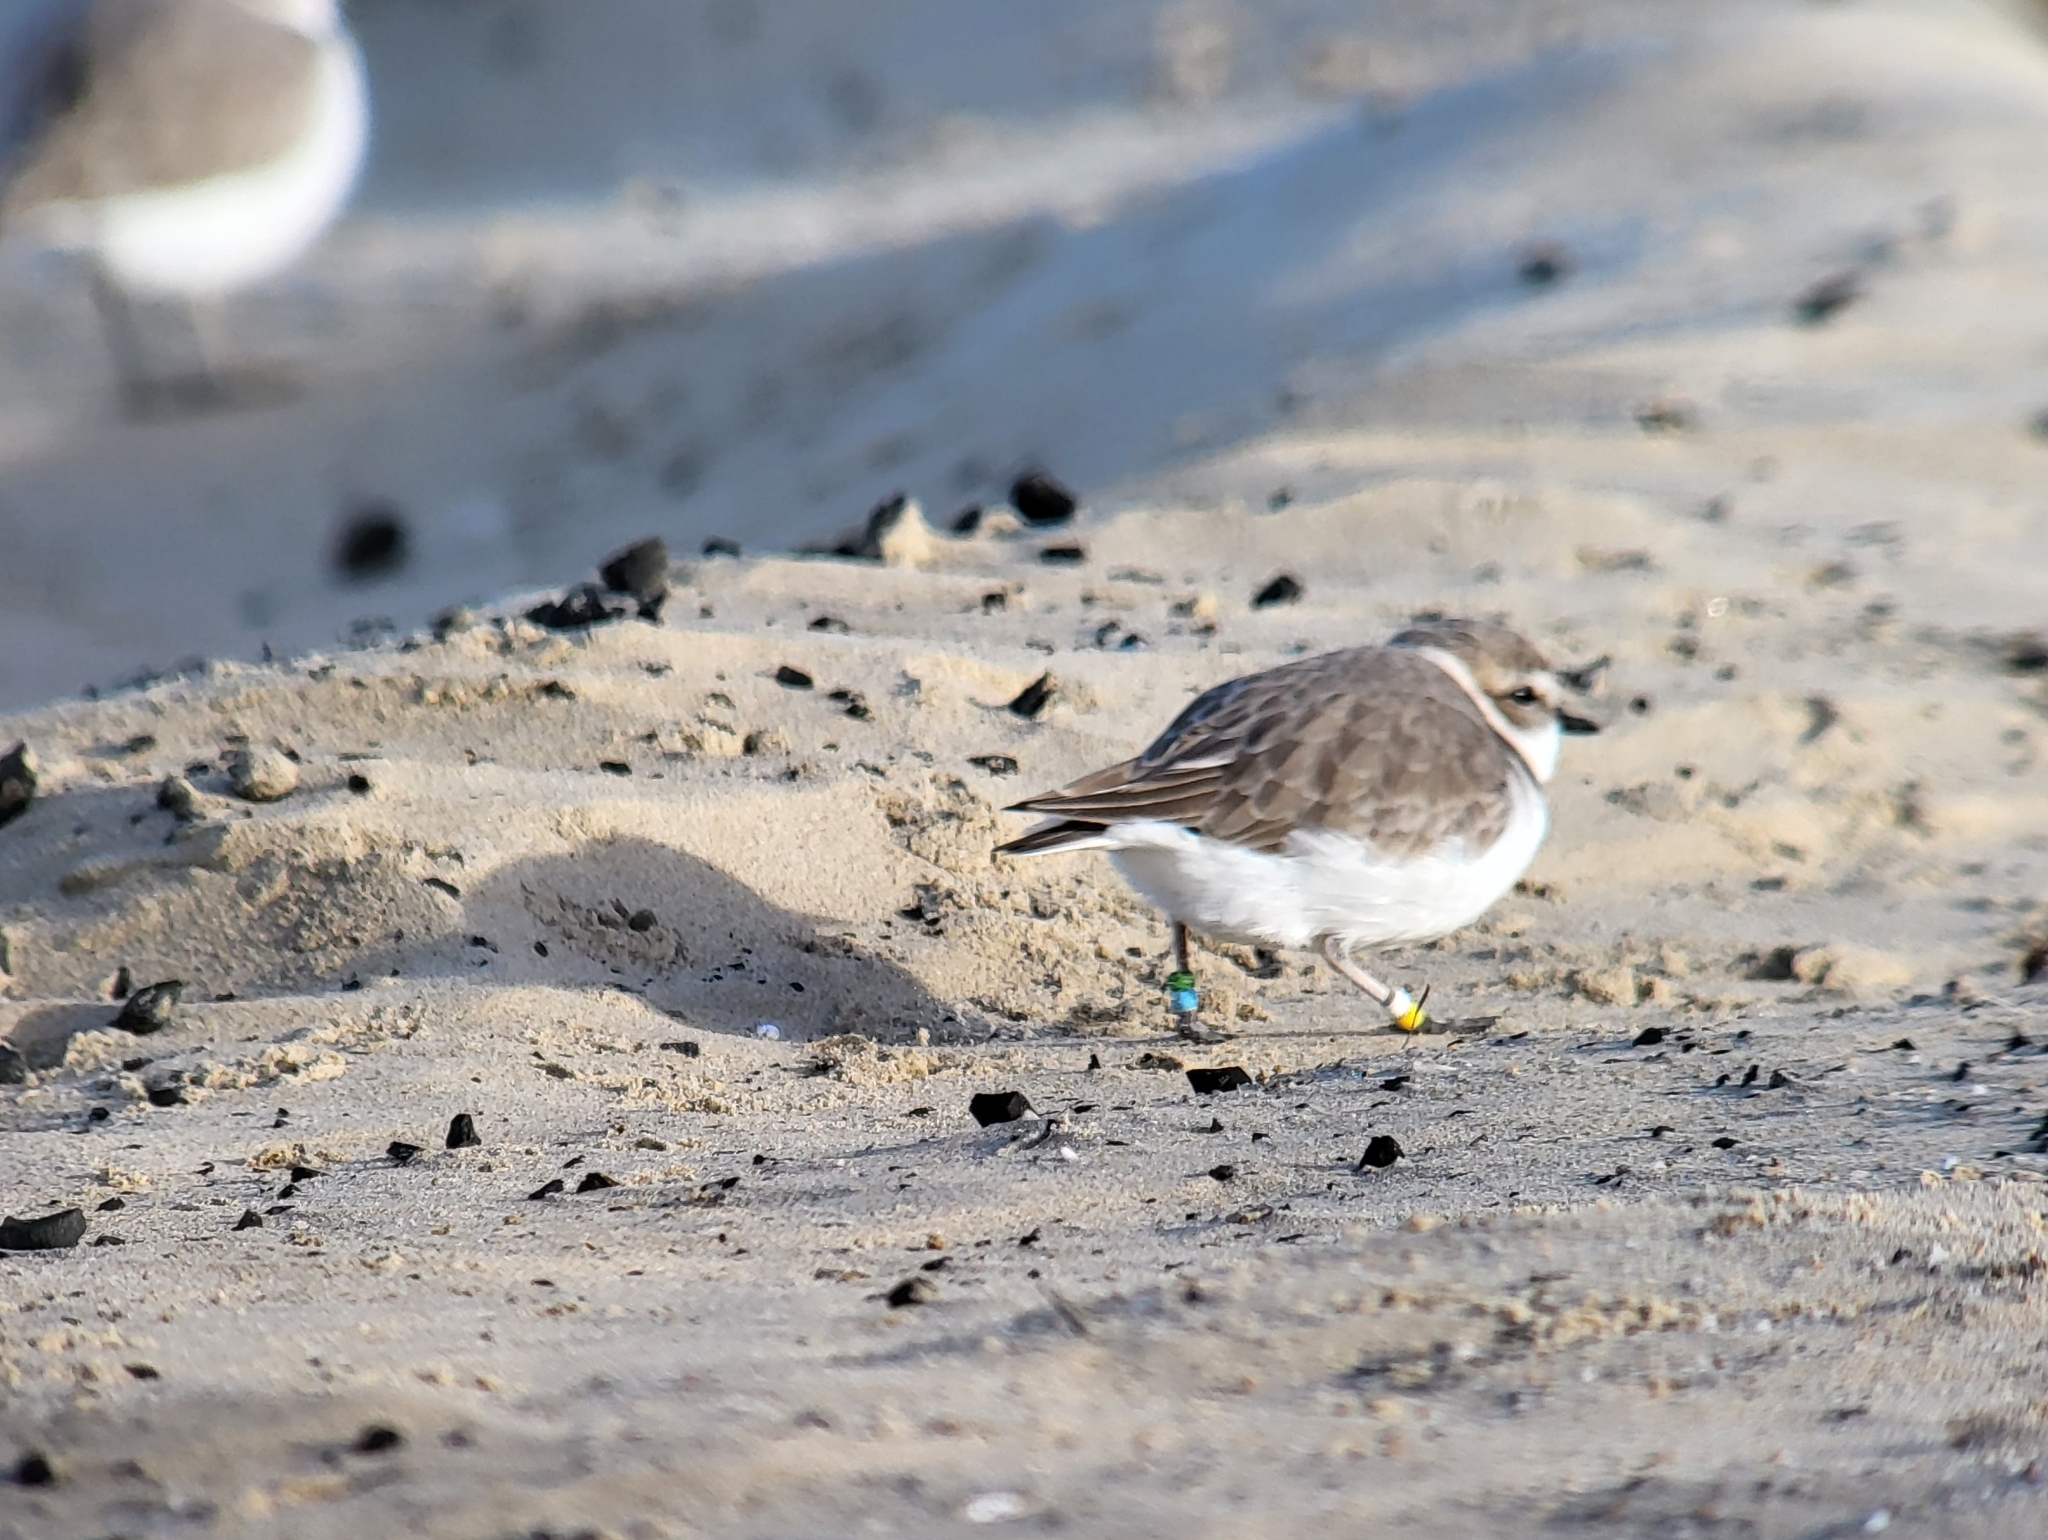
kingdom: Animalia
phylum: Chordata
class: Aves
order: Charadriiformes
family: Charadriidae
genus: Anarhynchus
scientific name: Anarhynchus
